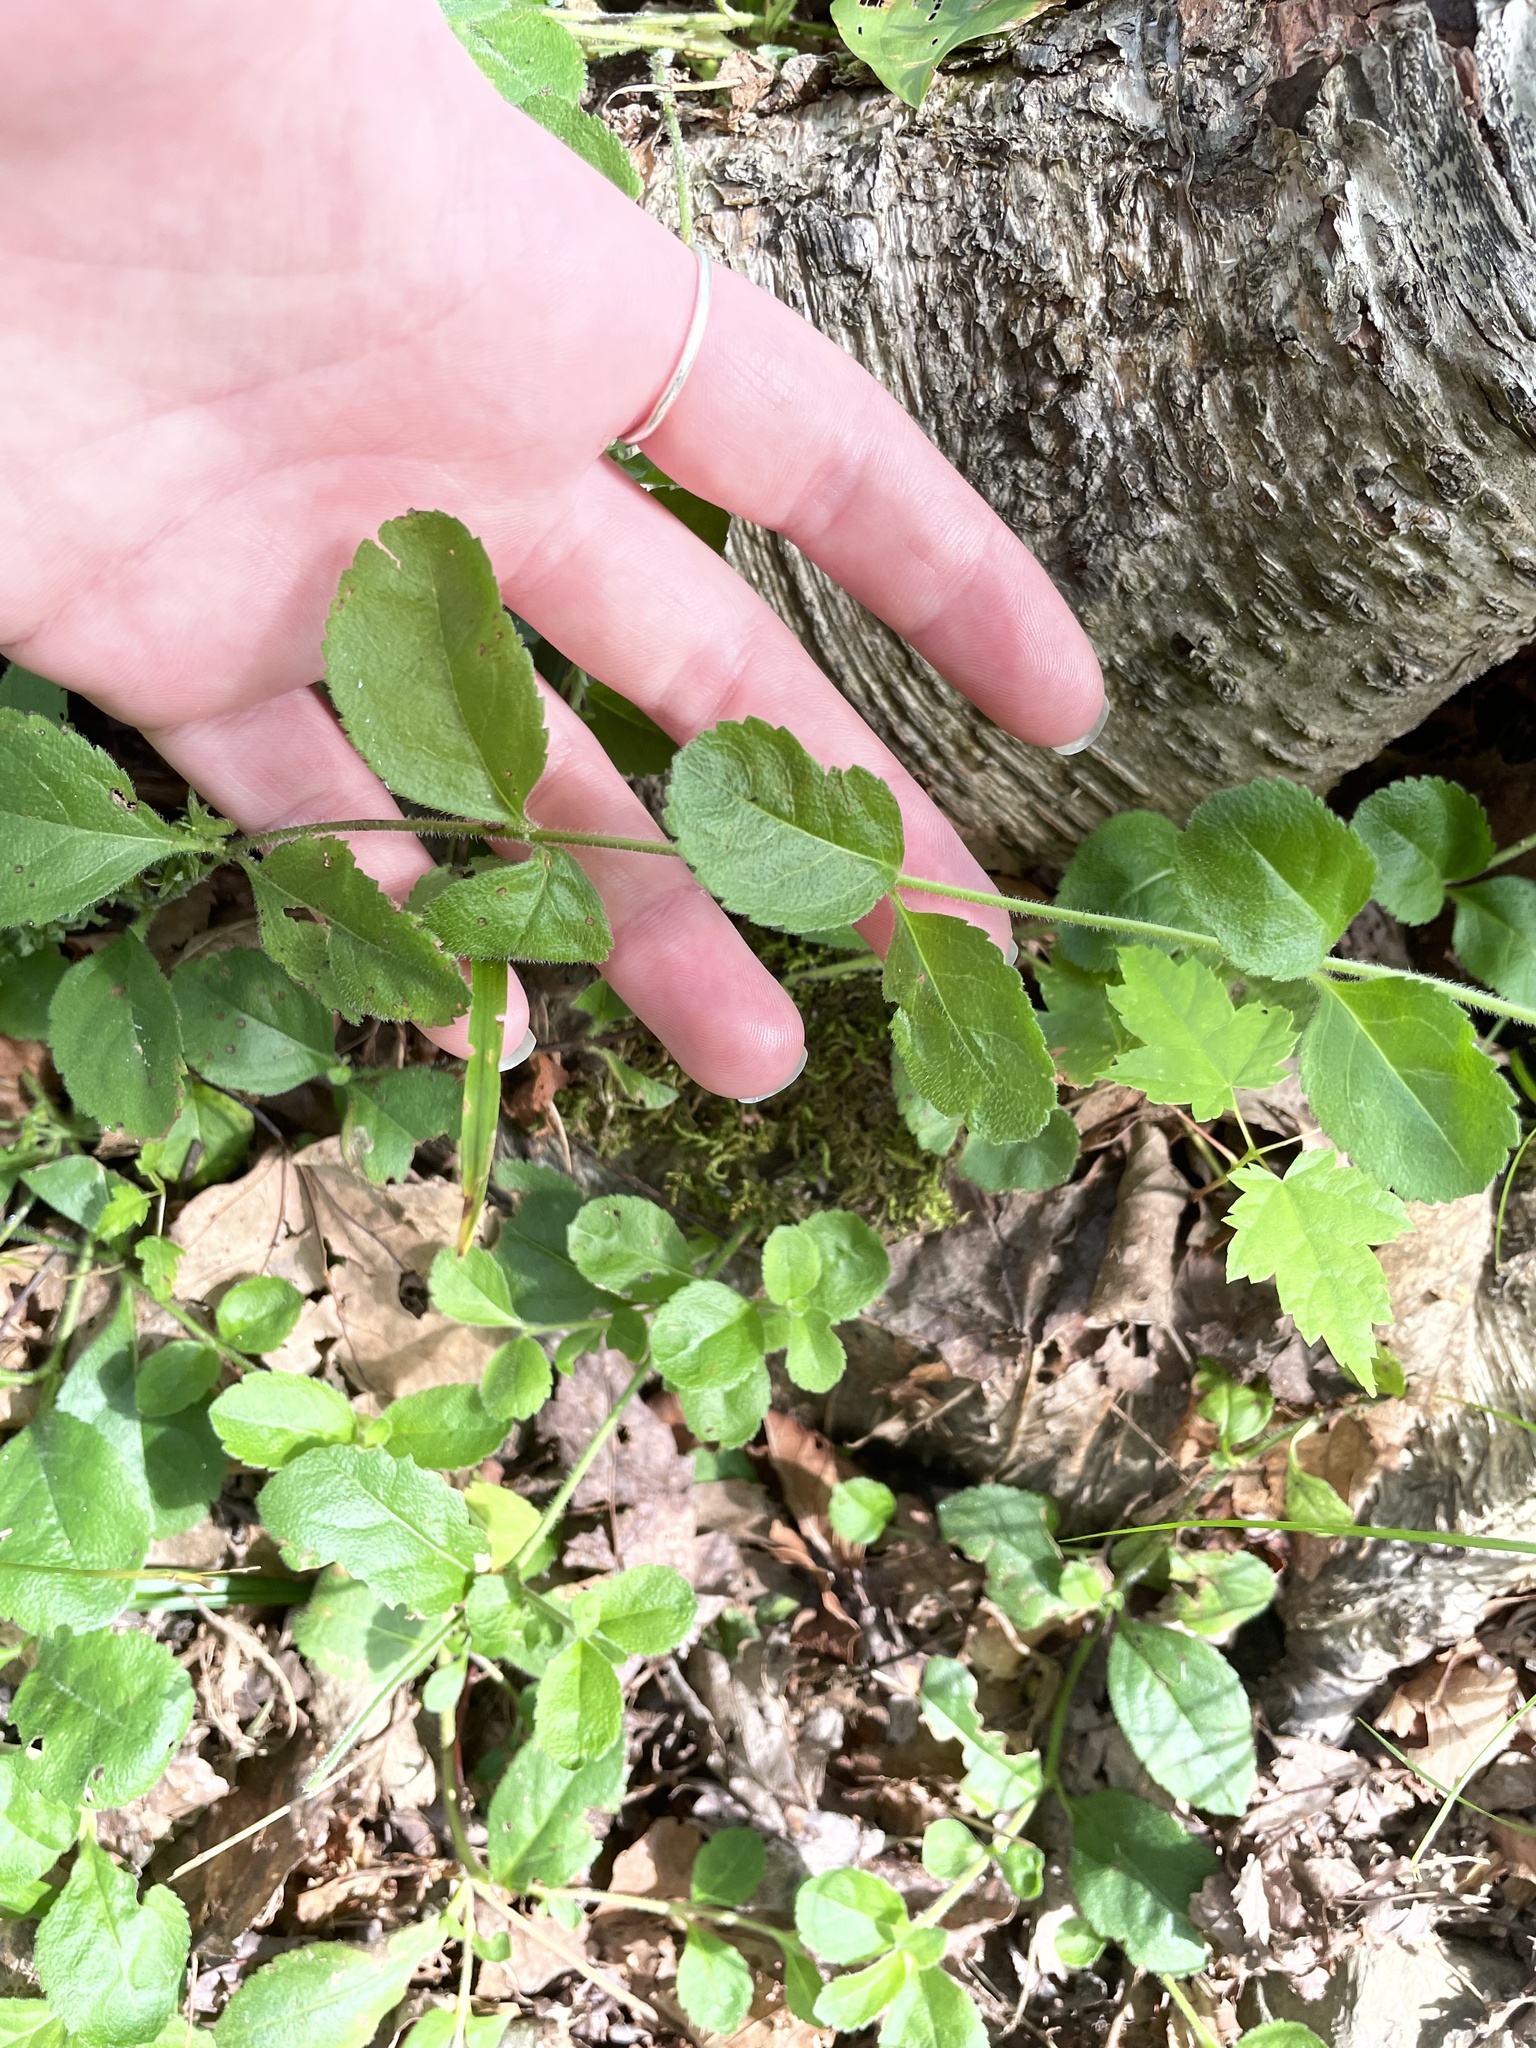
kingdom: Plantae
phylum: Tracheophyta
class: Magnoliopsida
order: Lamiales
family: Plantaginaceae
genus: Veronica
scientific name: Veronica officinalis
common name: Common speedwell
